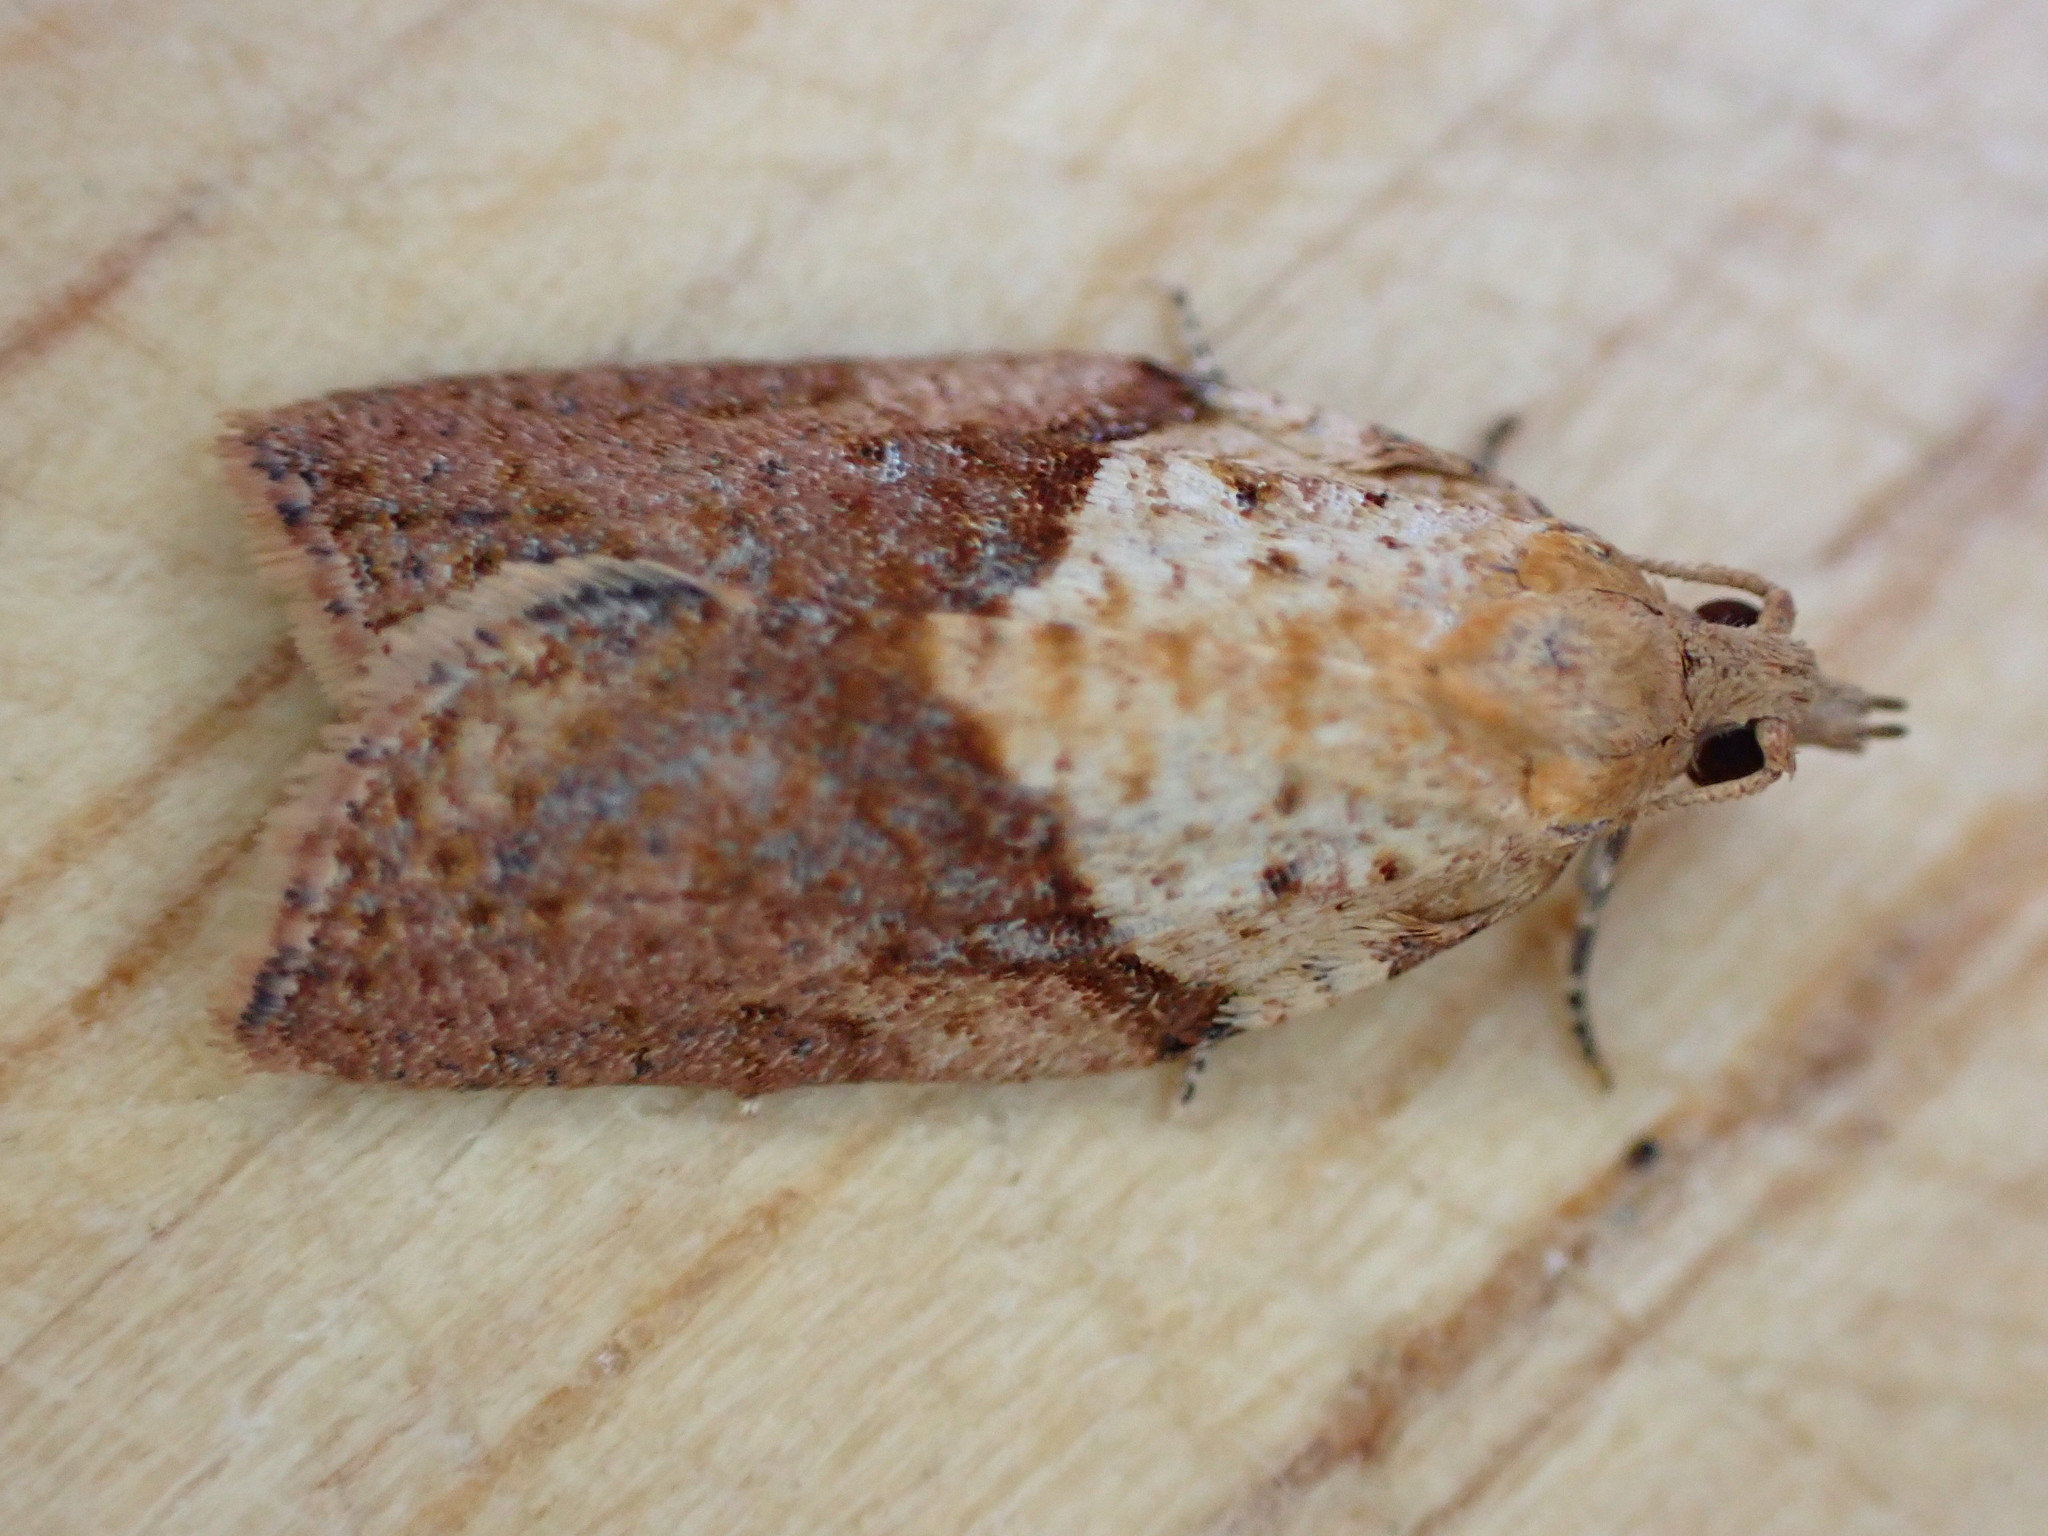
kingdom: Animalia
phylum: Arthropoda
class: Insecta
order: Lepidoptera
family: Tortricidae
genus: Epiphyas
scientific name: Epiphyas postvittana
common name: Light brown apple moth
